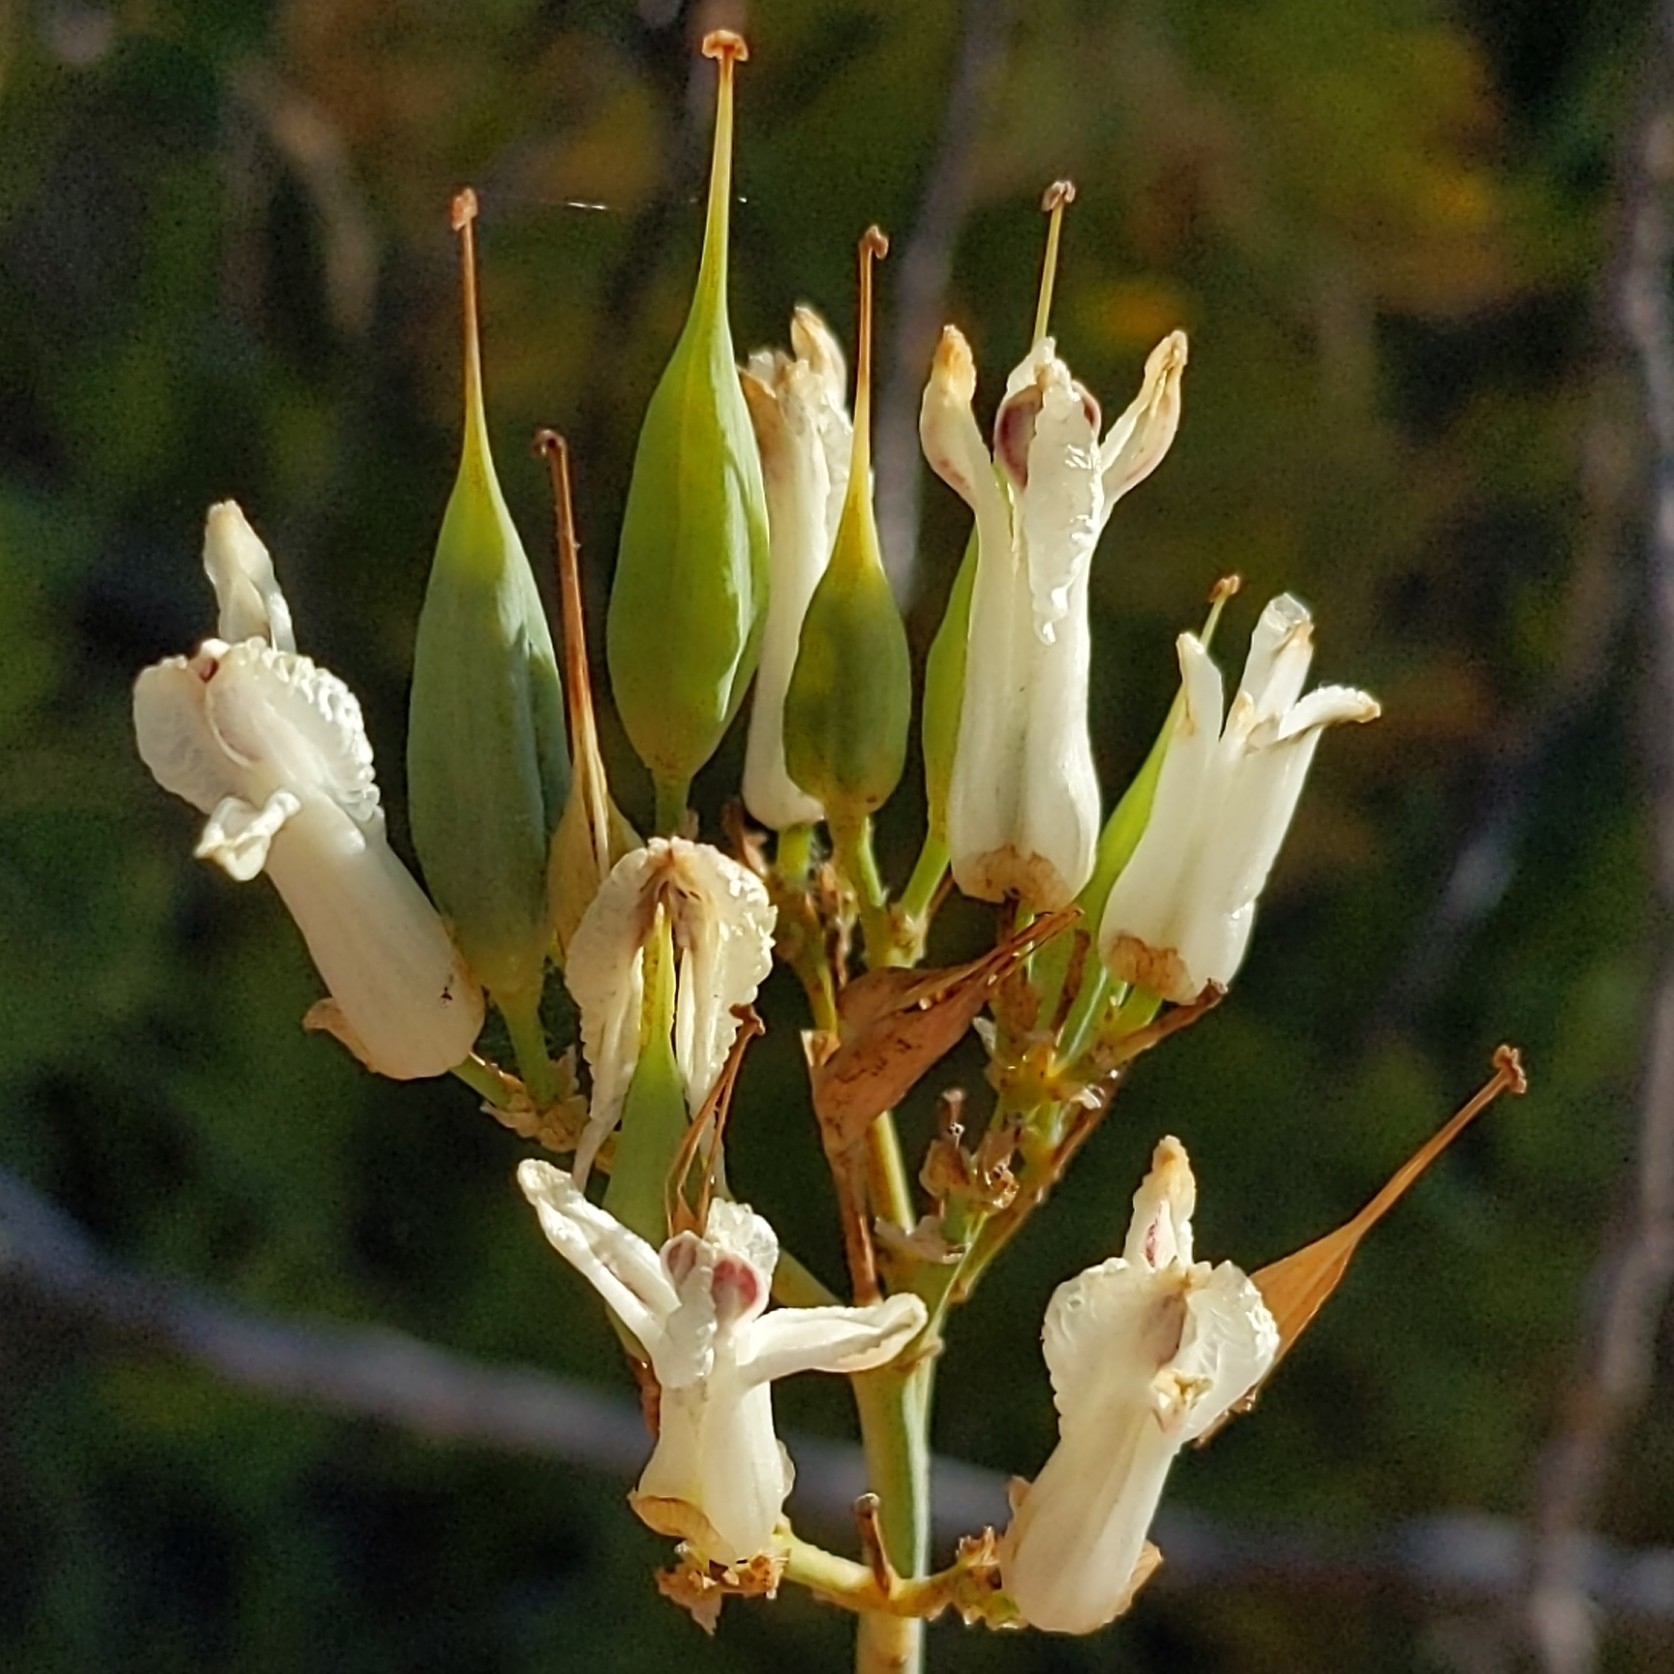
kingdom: Plantae
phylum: Tracheophyta
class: Magnoliopsida
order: Ranunculales
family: Papaveraceae
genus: Ehrendorferia
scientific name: Ehrendorferia ochroleuca
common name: White eardrops
